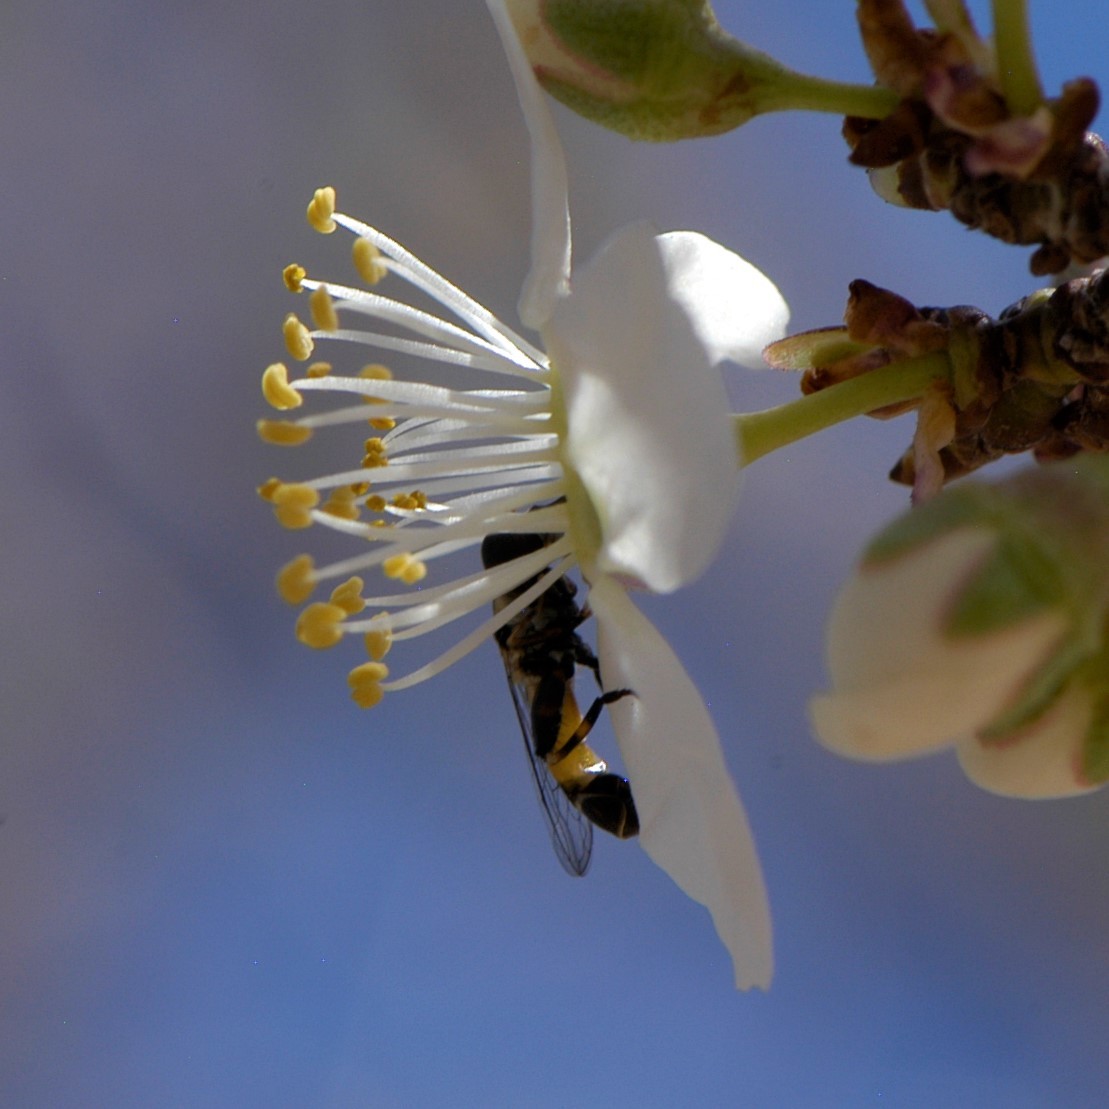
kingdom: Animalia
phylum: Arthropoda
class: Insecta
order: Diptera
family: Syrphidae
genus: Syritta
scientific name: Syritta pipiens
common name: Hover fly
